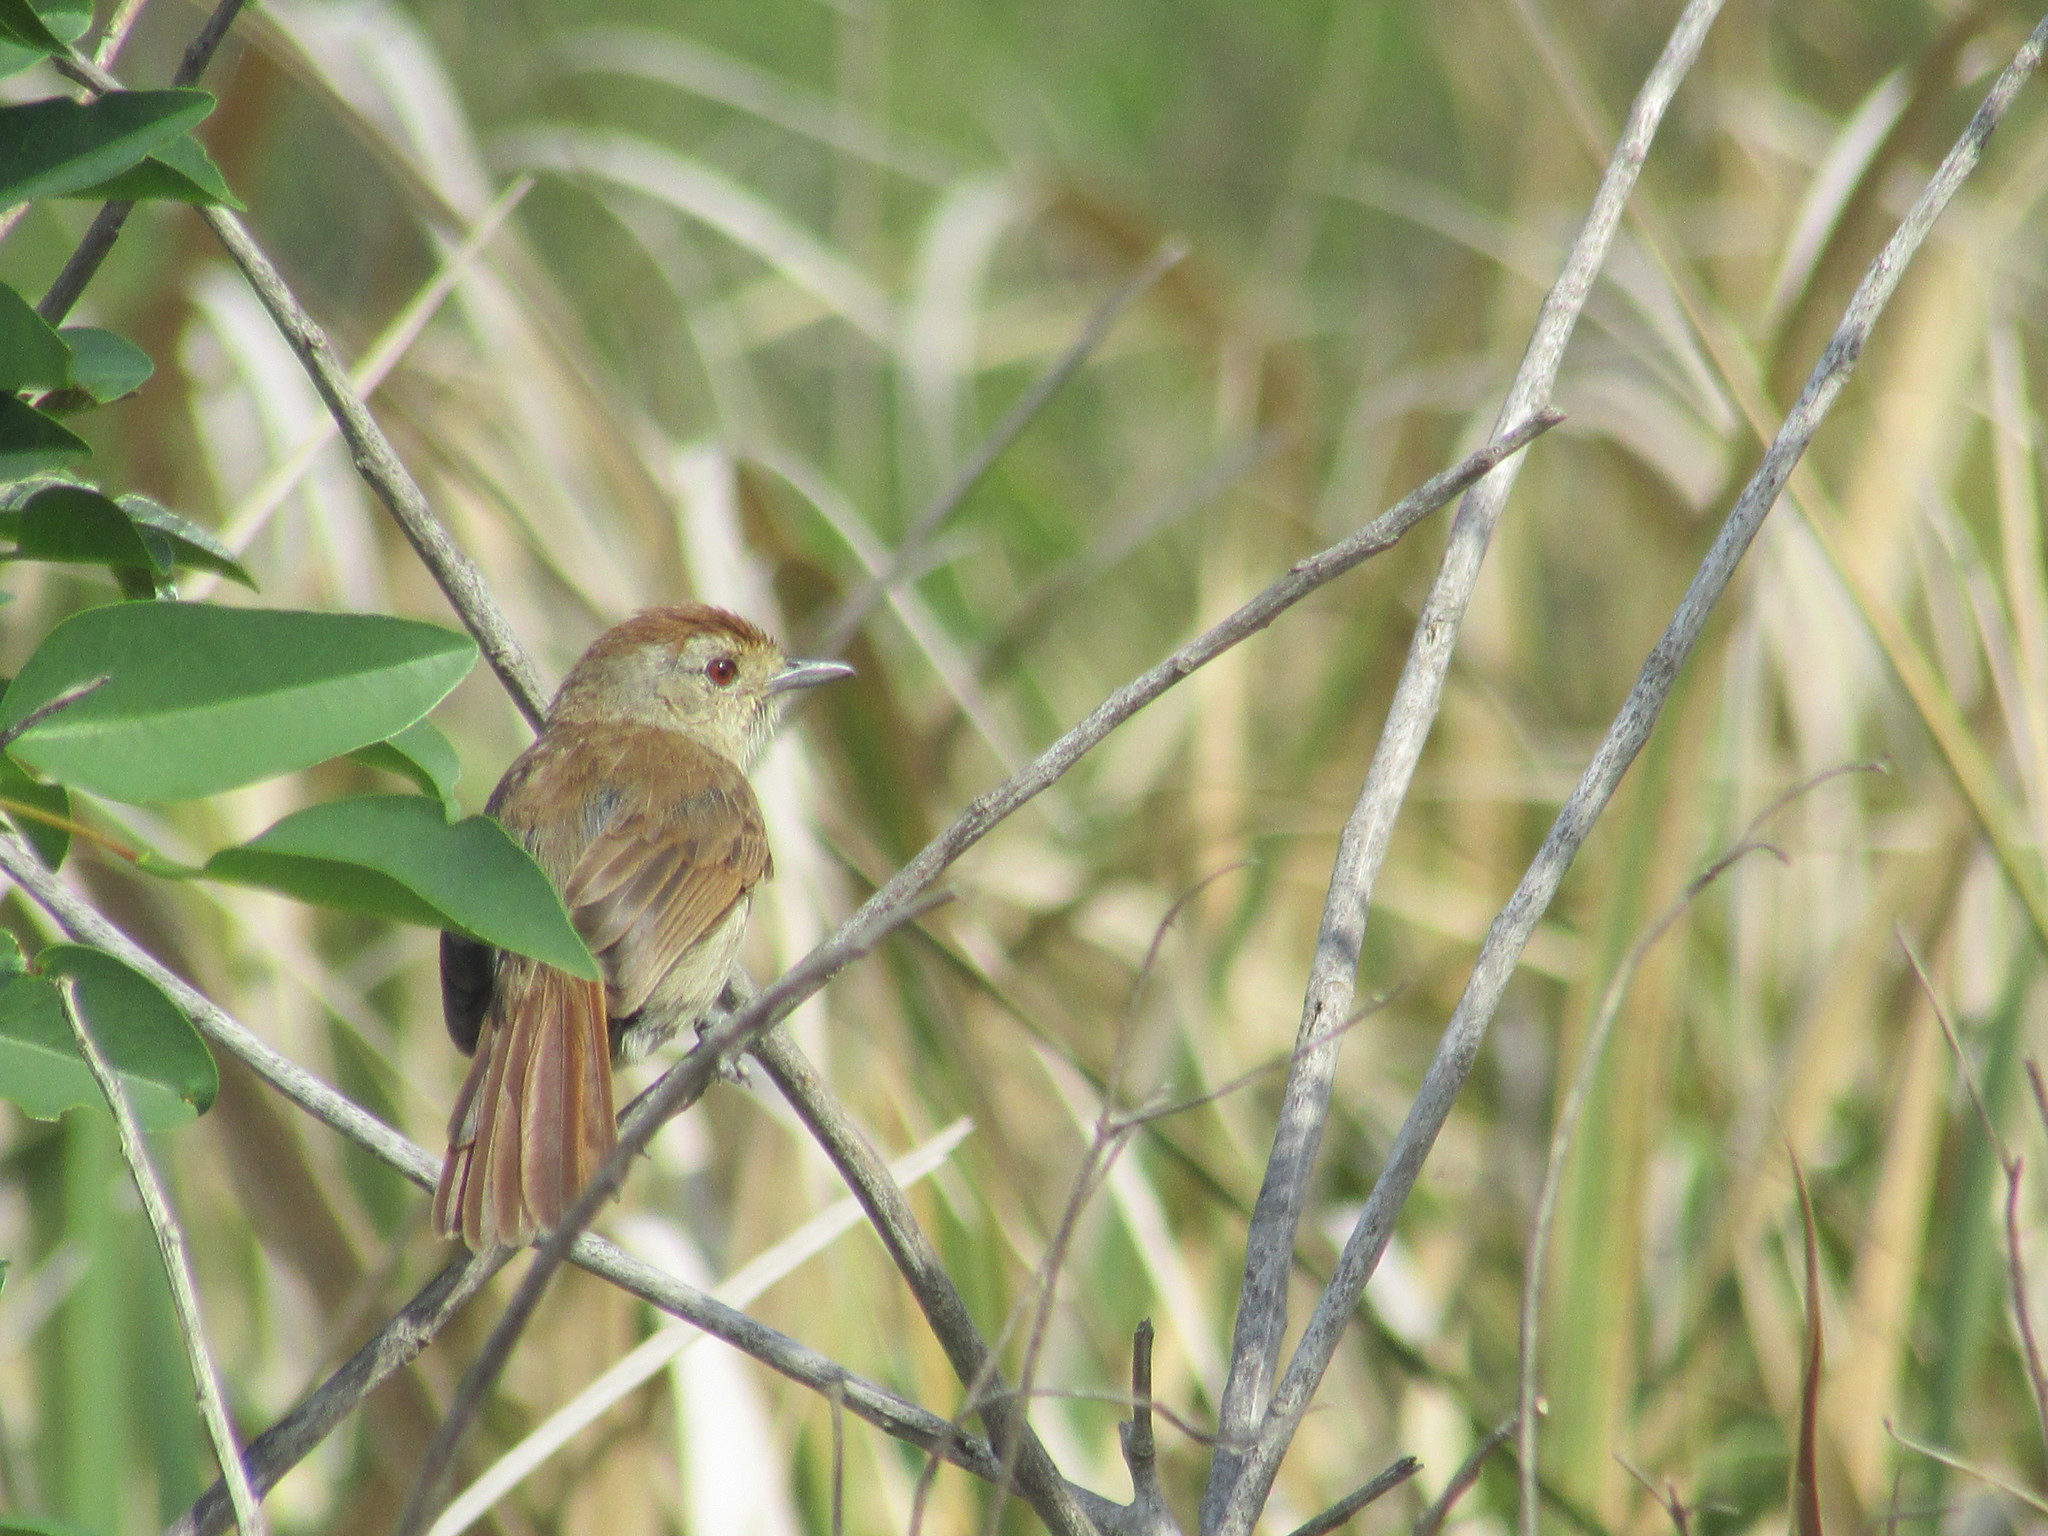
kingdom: Animalia
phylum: Chordata
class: Aves
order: Passeriformes
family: Thamnophilidae
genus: Thamnophilus
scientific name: Thamnophilus ruficapillus
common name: Rufous-capped antshrike
